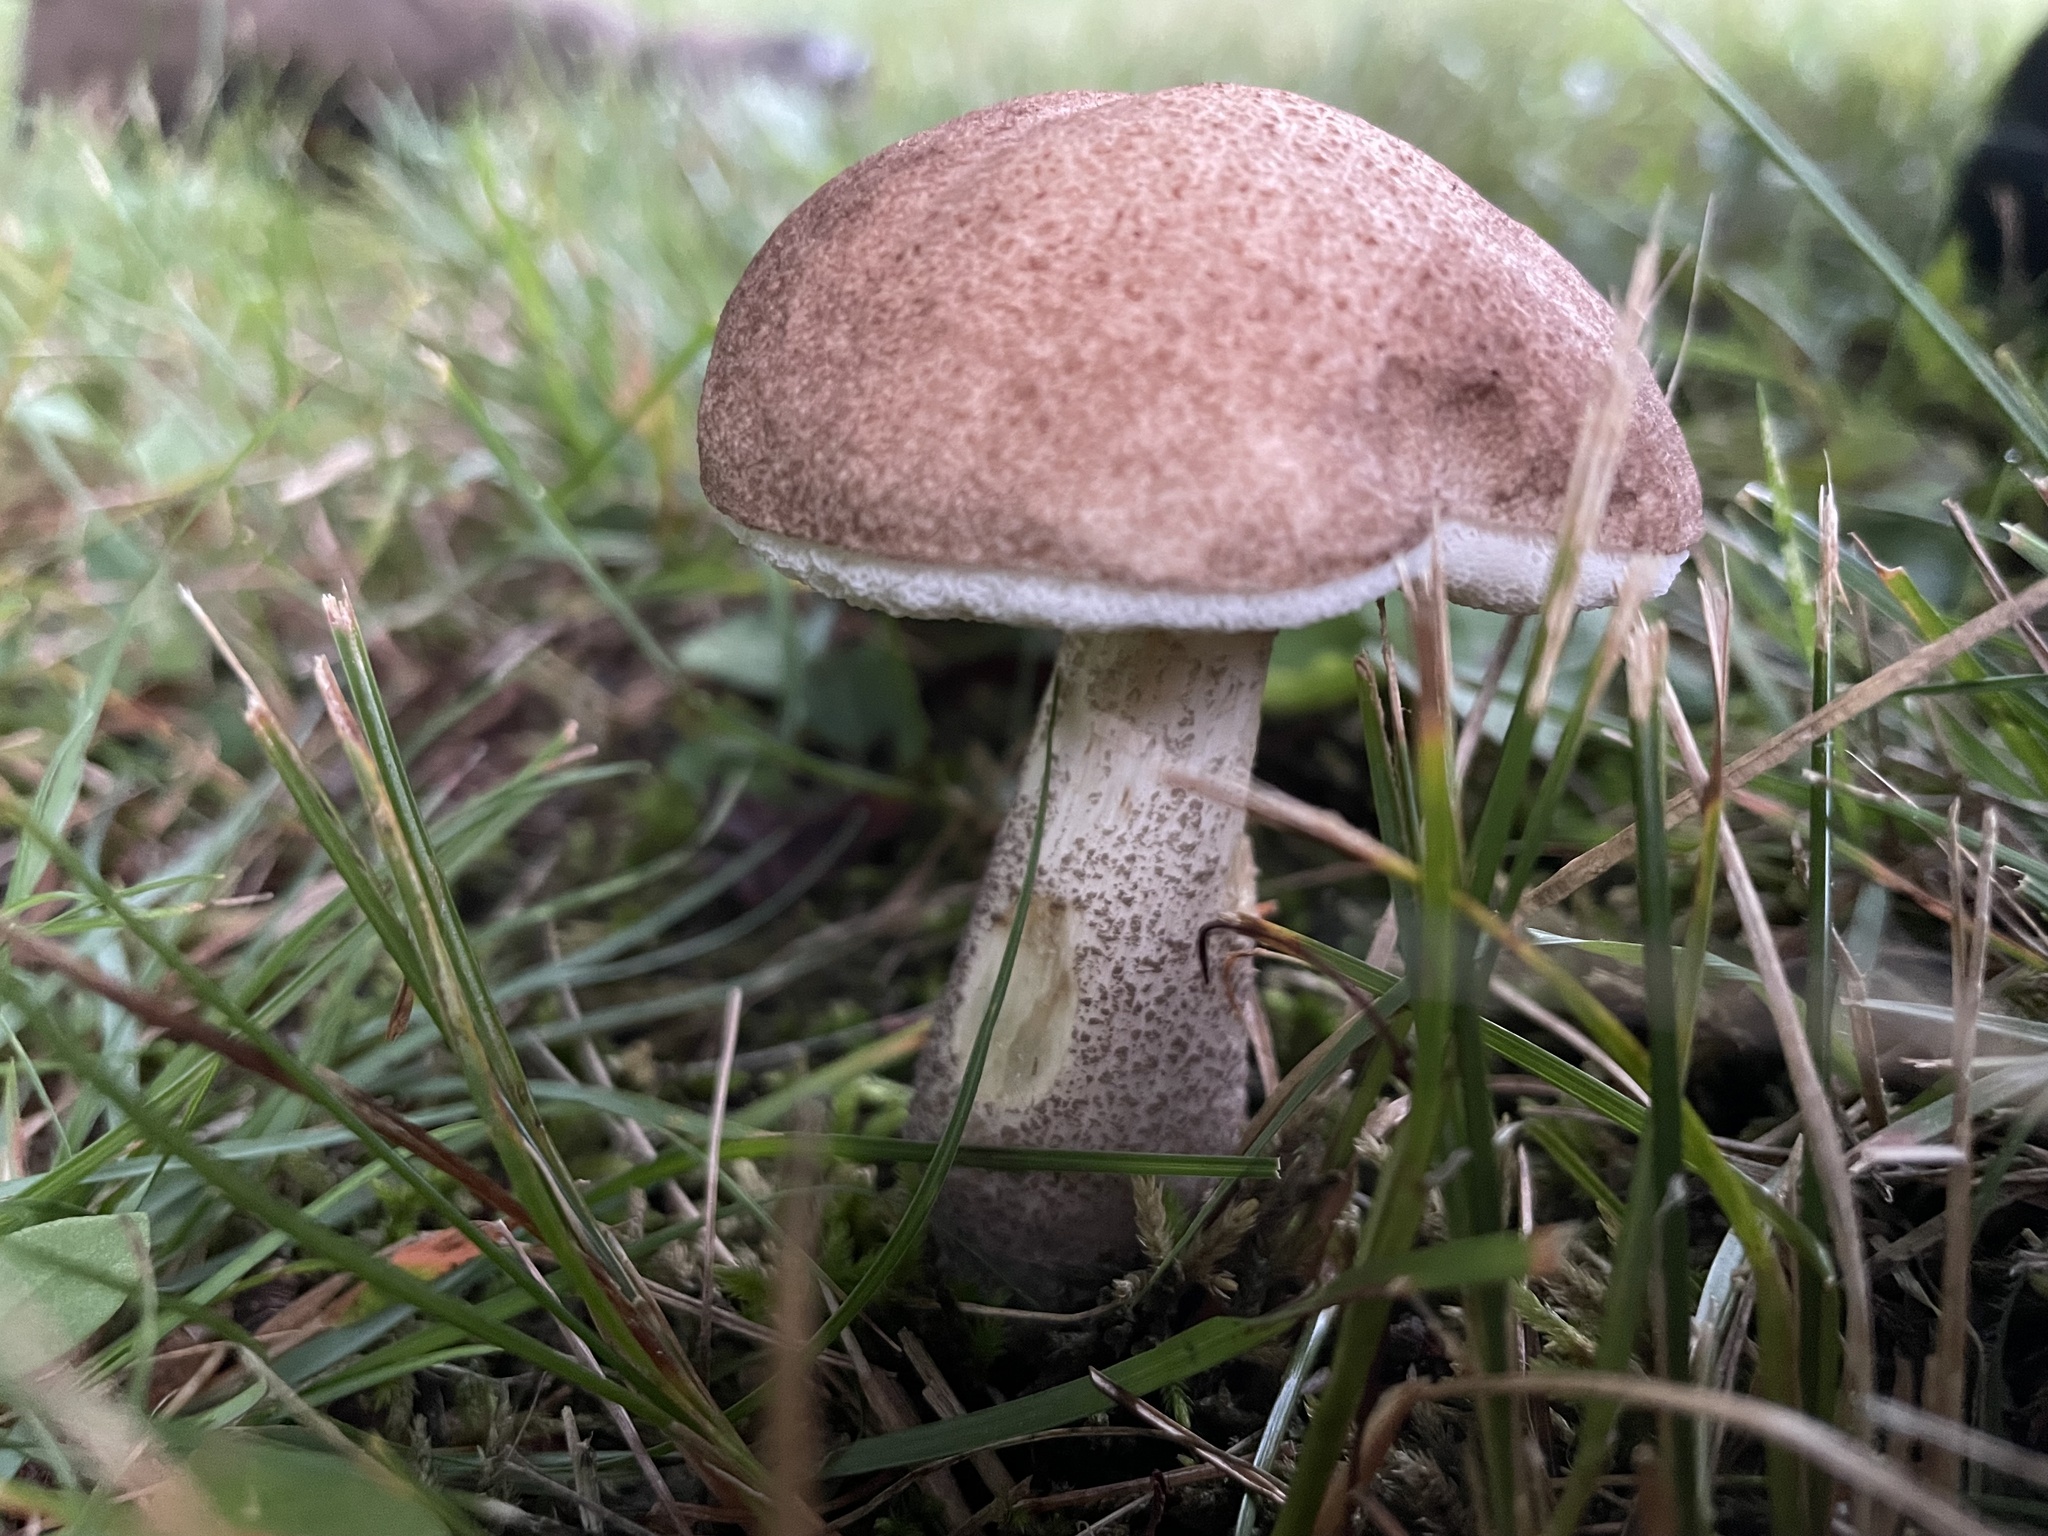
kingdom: Fungi
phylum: Basidiomycota
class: Agaricomycetes
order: Boletales
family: Boletaceae
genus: Leccinum
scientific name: Leccinum scabrum
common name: Blushing bolete
